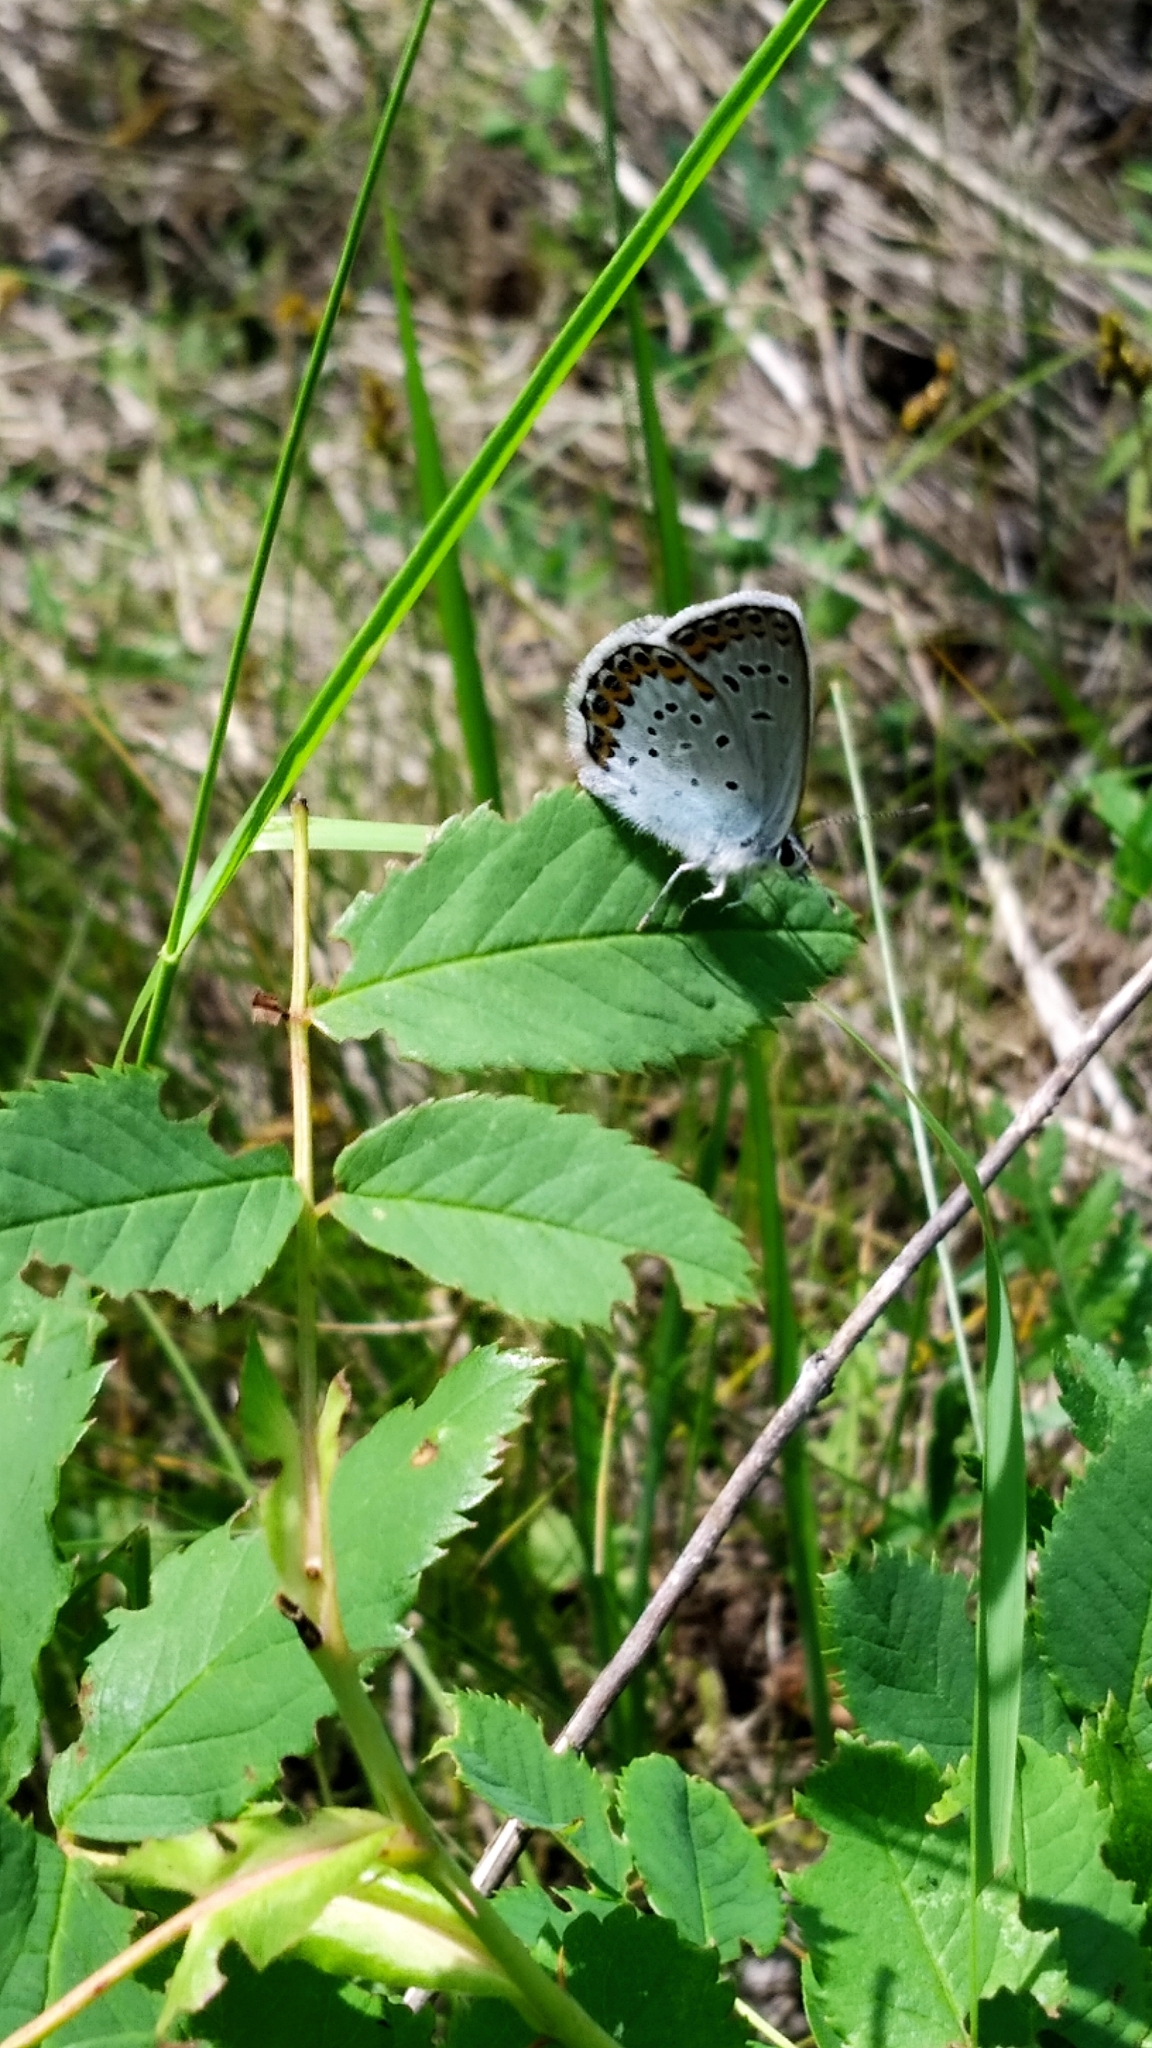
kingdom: Animalia
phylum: Arthropoda
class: Insecta
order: Lepidoptera
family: Lycaenidae
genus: Lycaeides
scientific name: Lycaeides idas
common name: Northern blue
